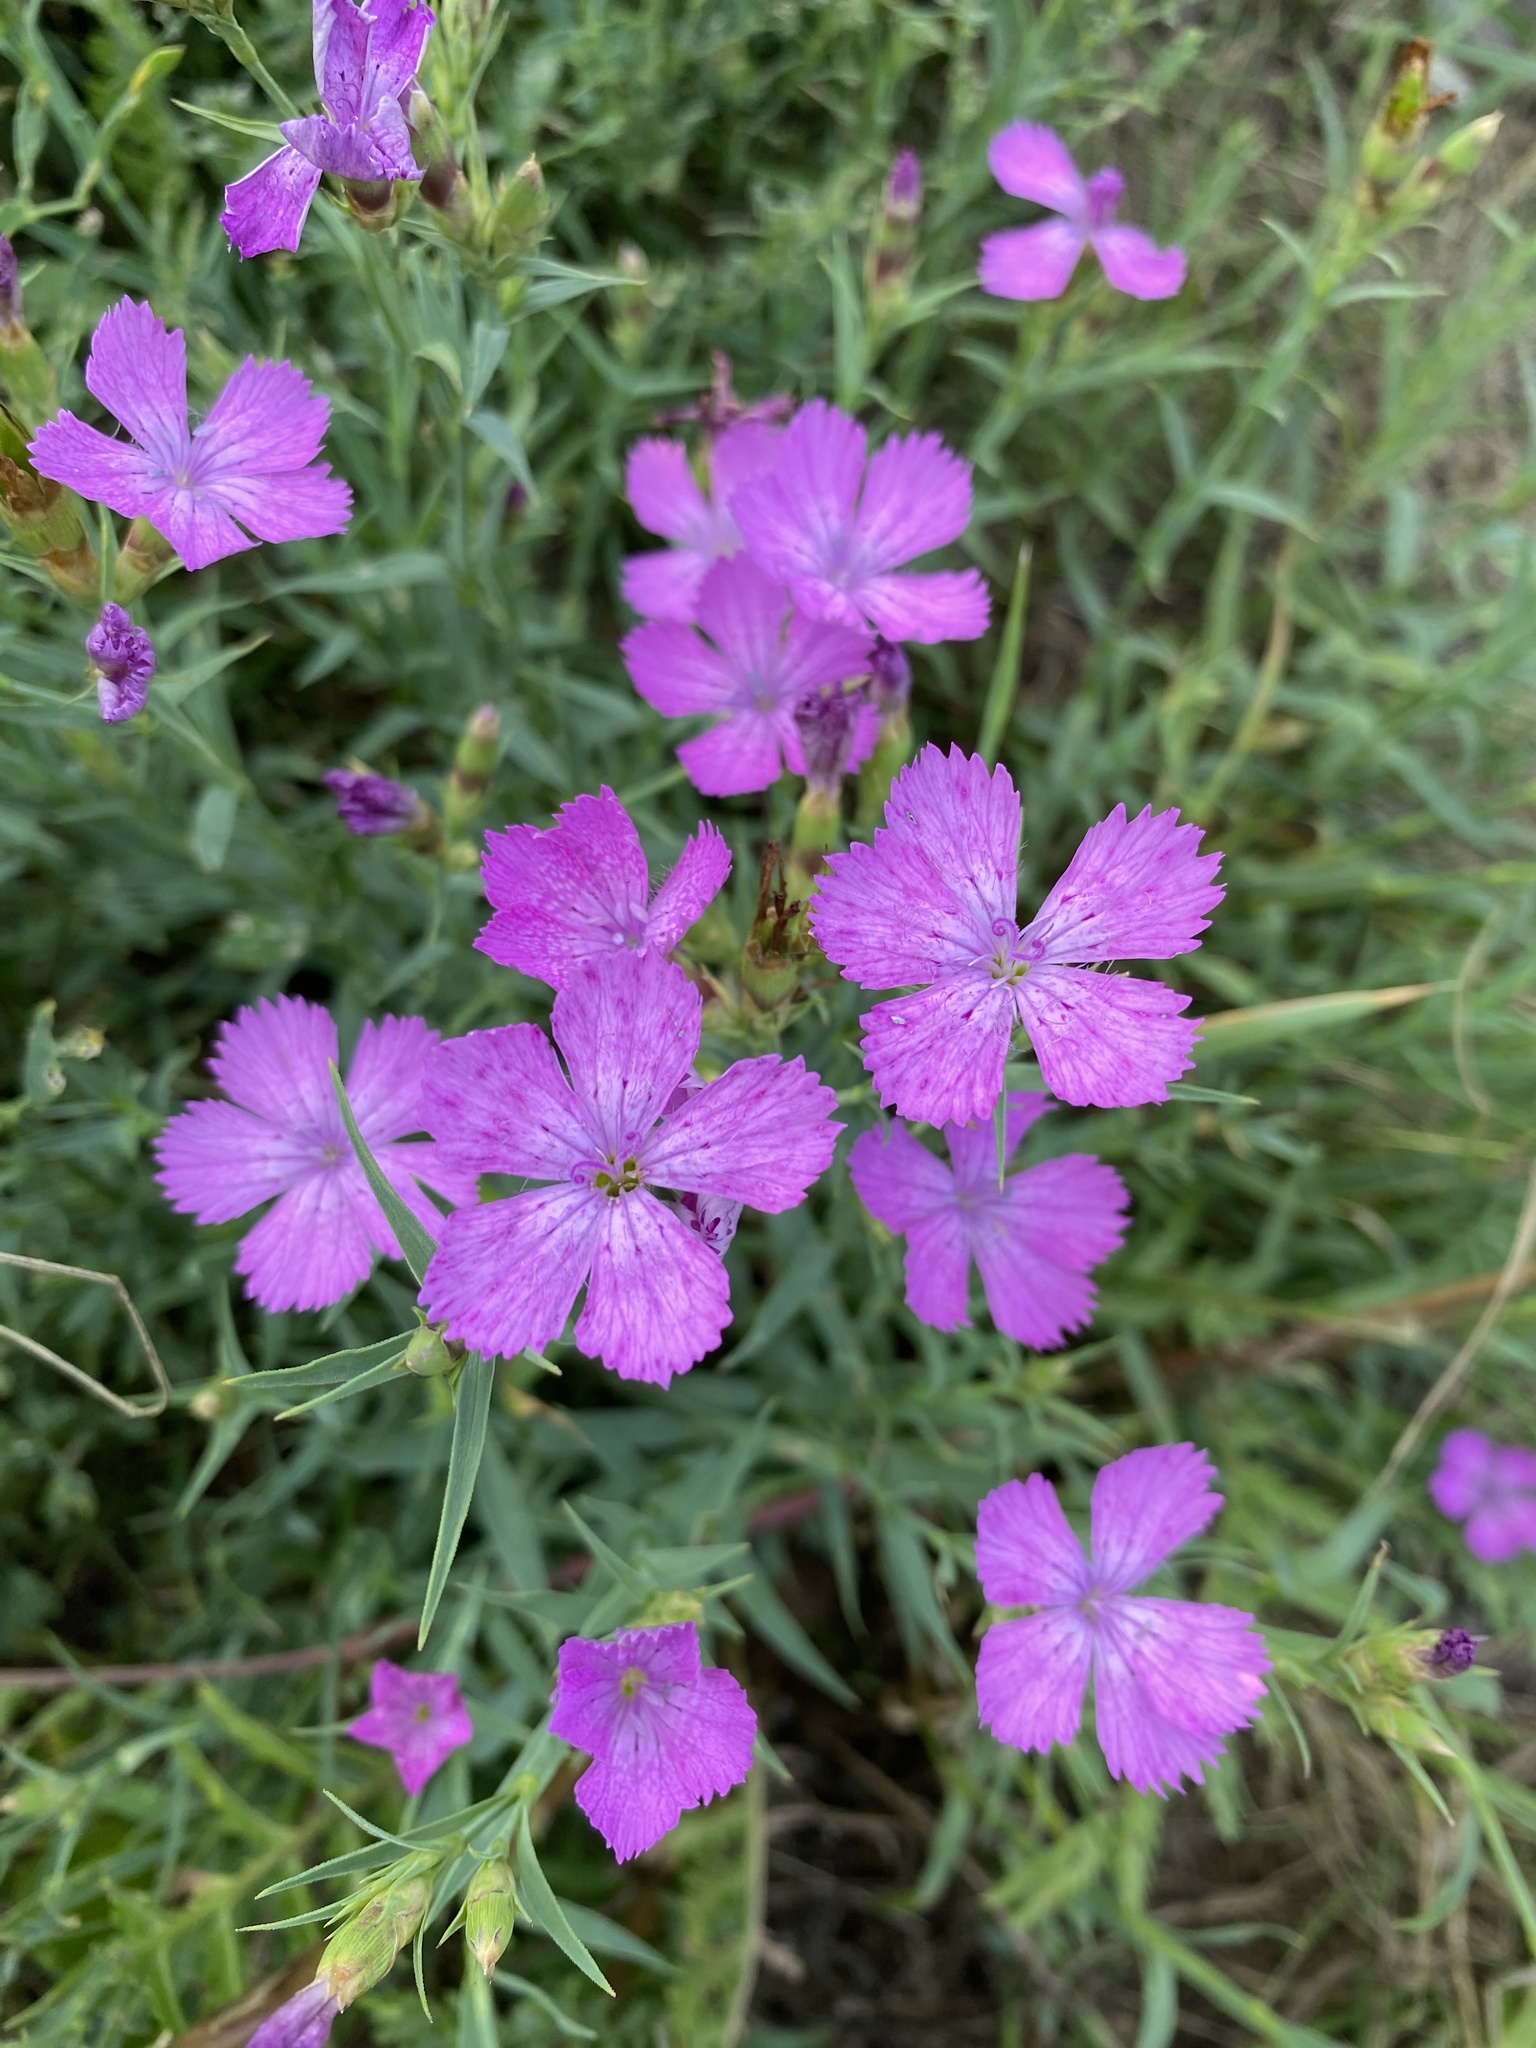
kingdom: Plantae
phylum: Tracheophyta
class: Magnoliopsida
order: Caryophyllales
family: Caryophyllaceae
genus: Dianthus
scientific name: Dianthus chinensis
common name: Rainbow pink
